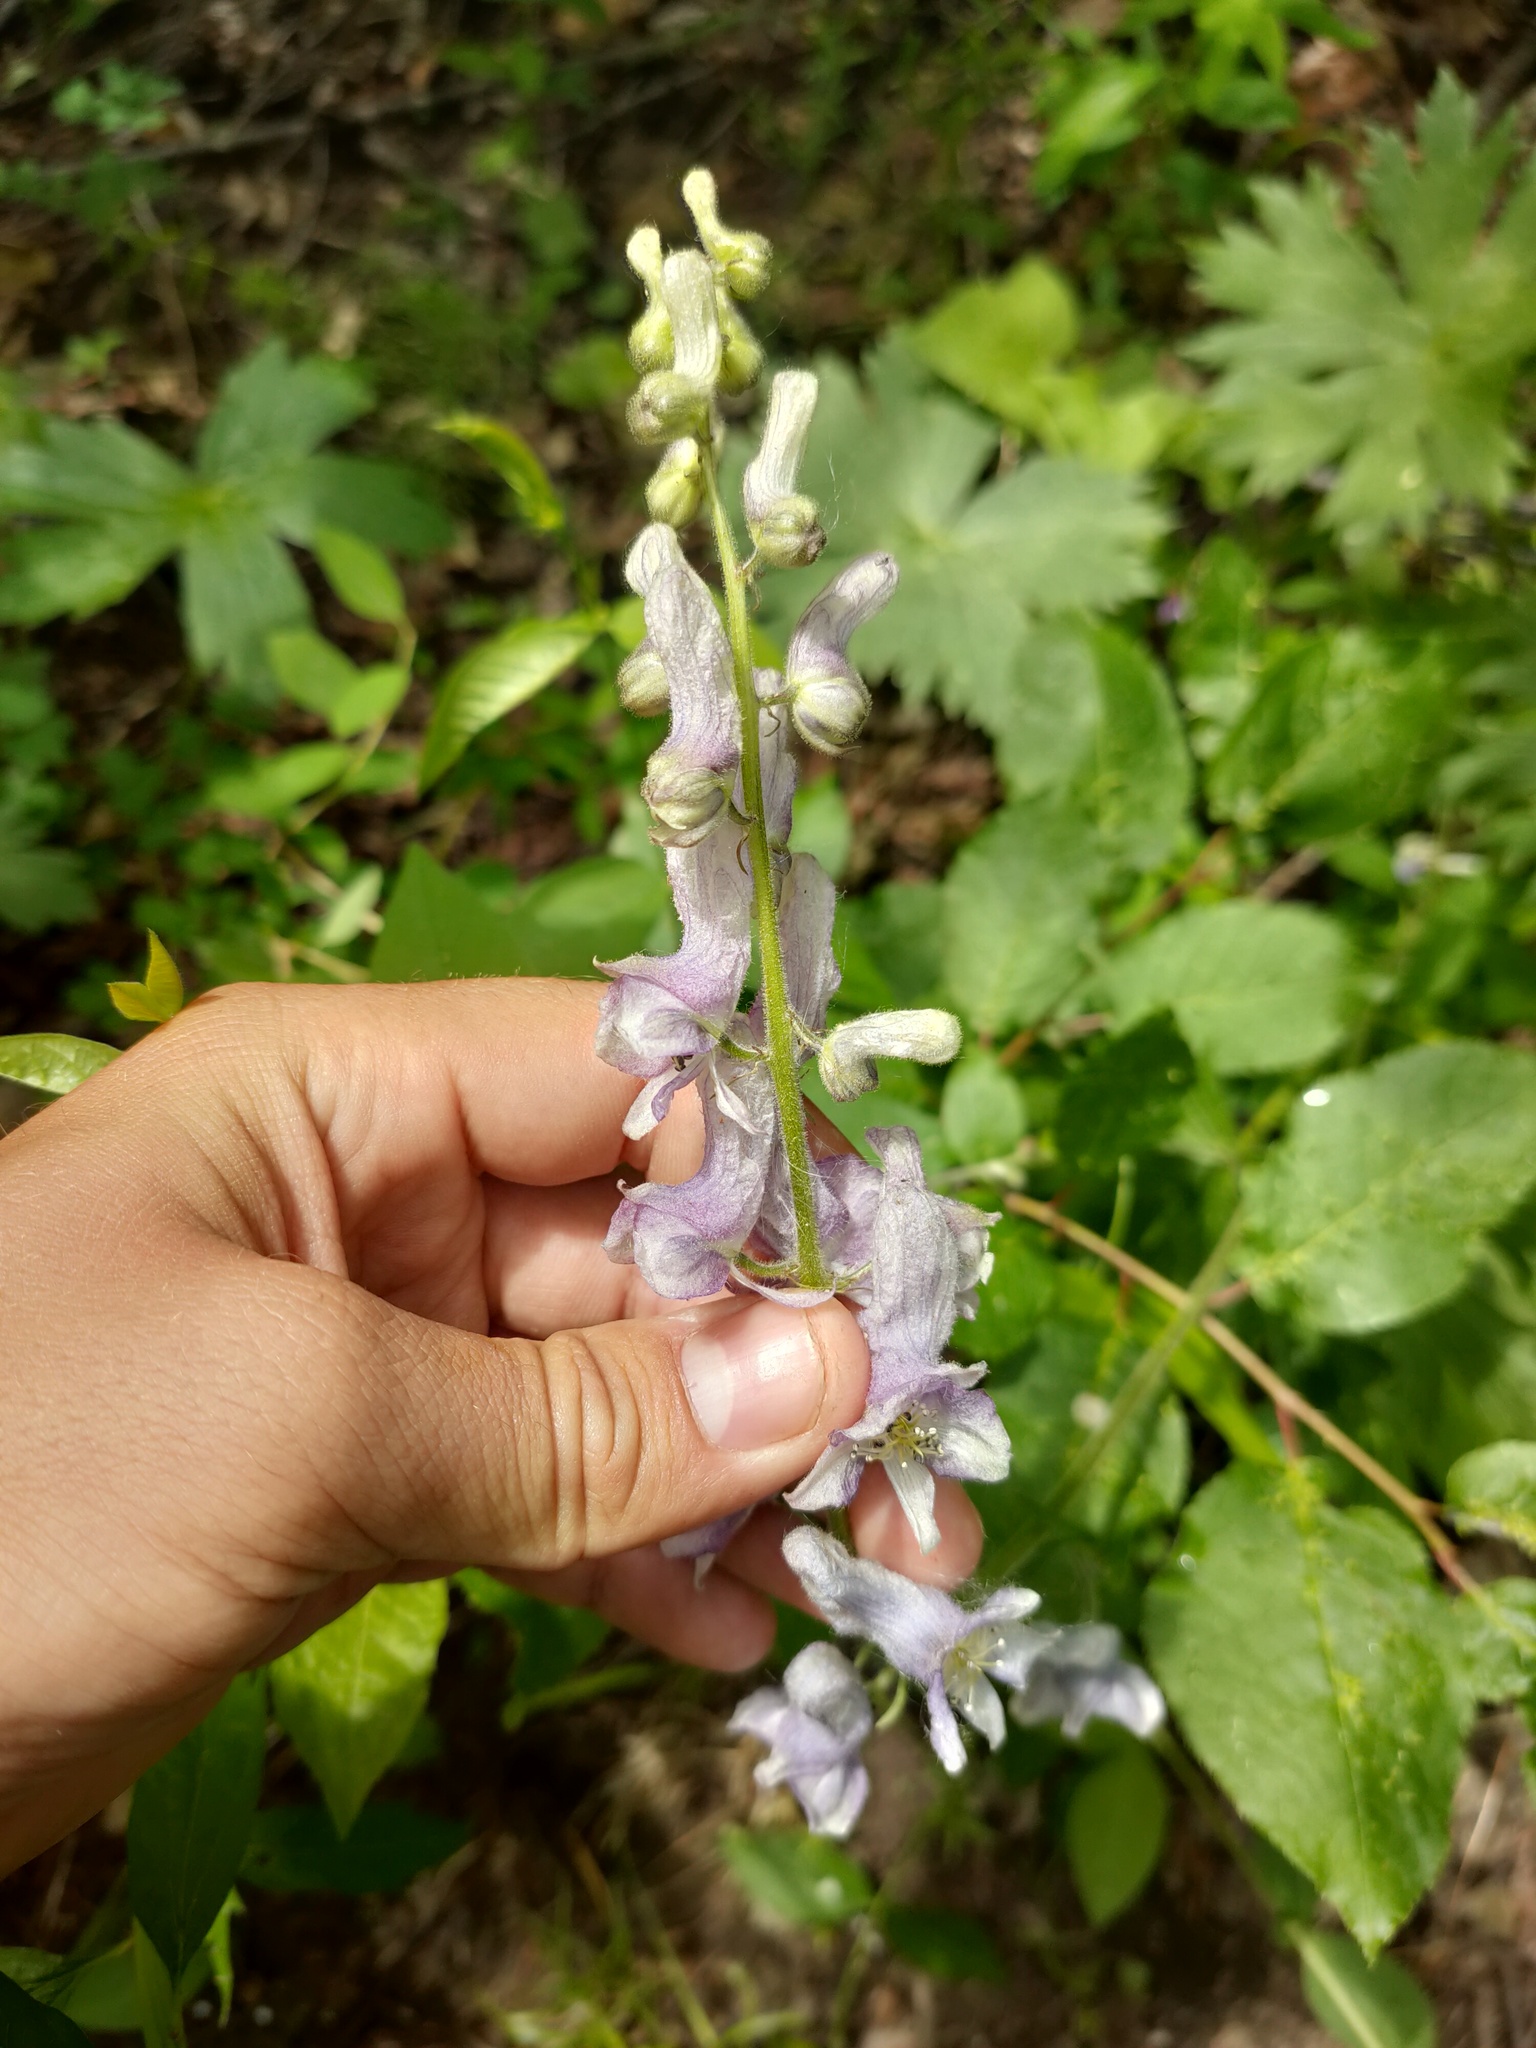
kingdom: Plantae
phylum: Tracheophyta
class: Magnoliopsida
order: Ranunculales
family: Ranunculaceae
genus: Aconitum
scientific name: Aconitum septentrionale
